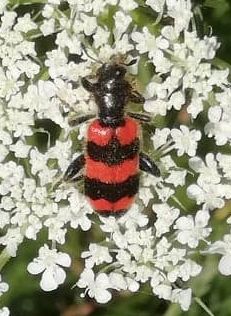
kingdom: Animalia
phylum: Arthropoda
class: Insecta
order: Coleoptera
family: Cleridae
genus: Trichodes
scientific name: Trichodes apiarius
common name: Bee-eating beetle
